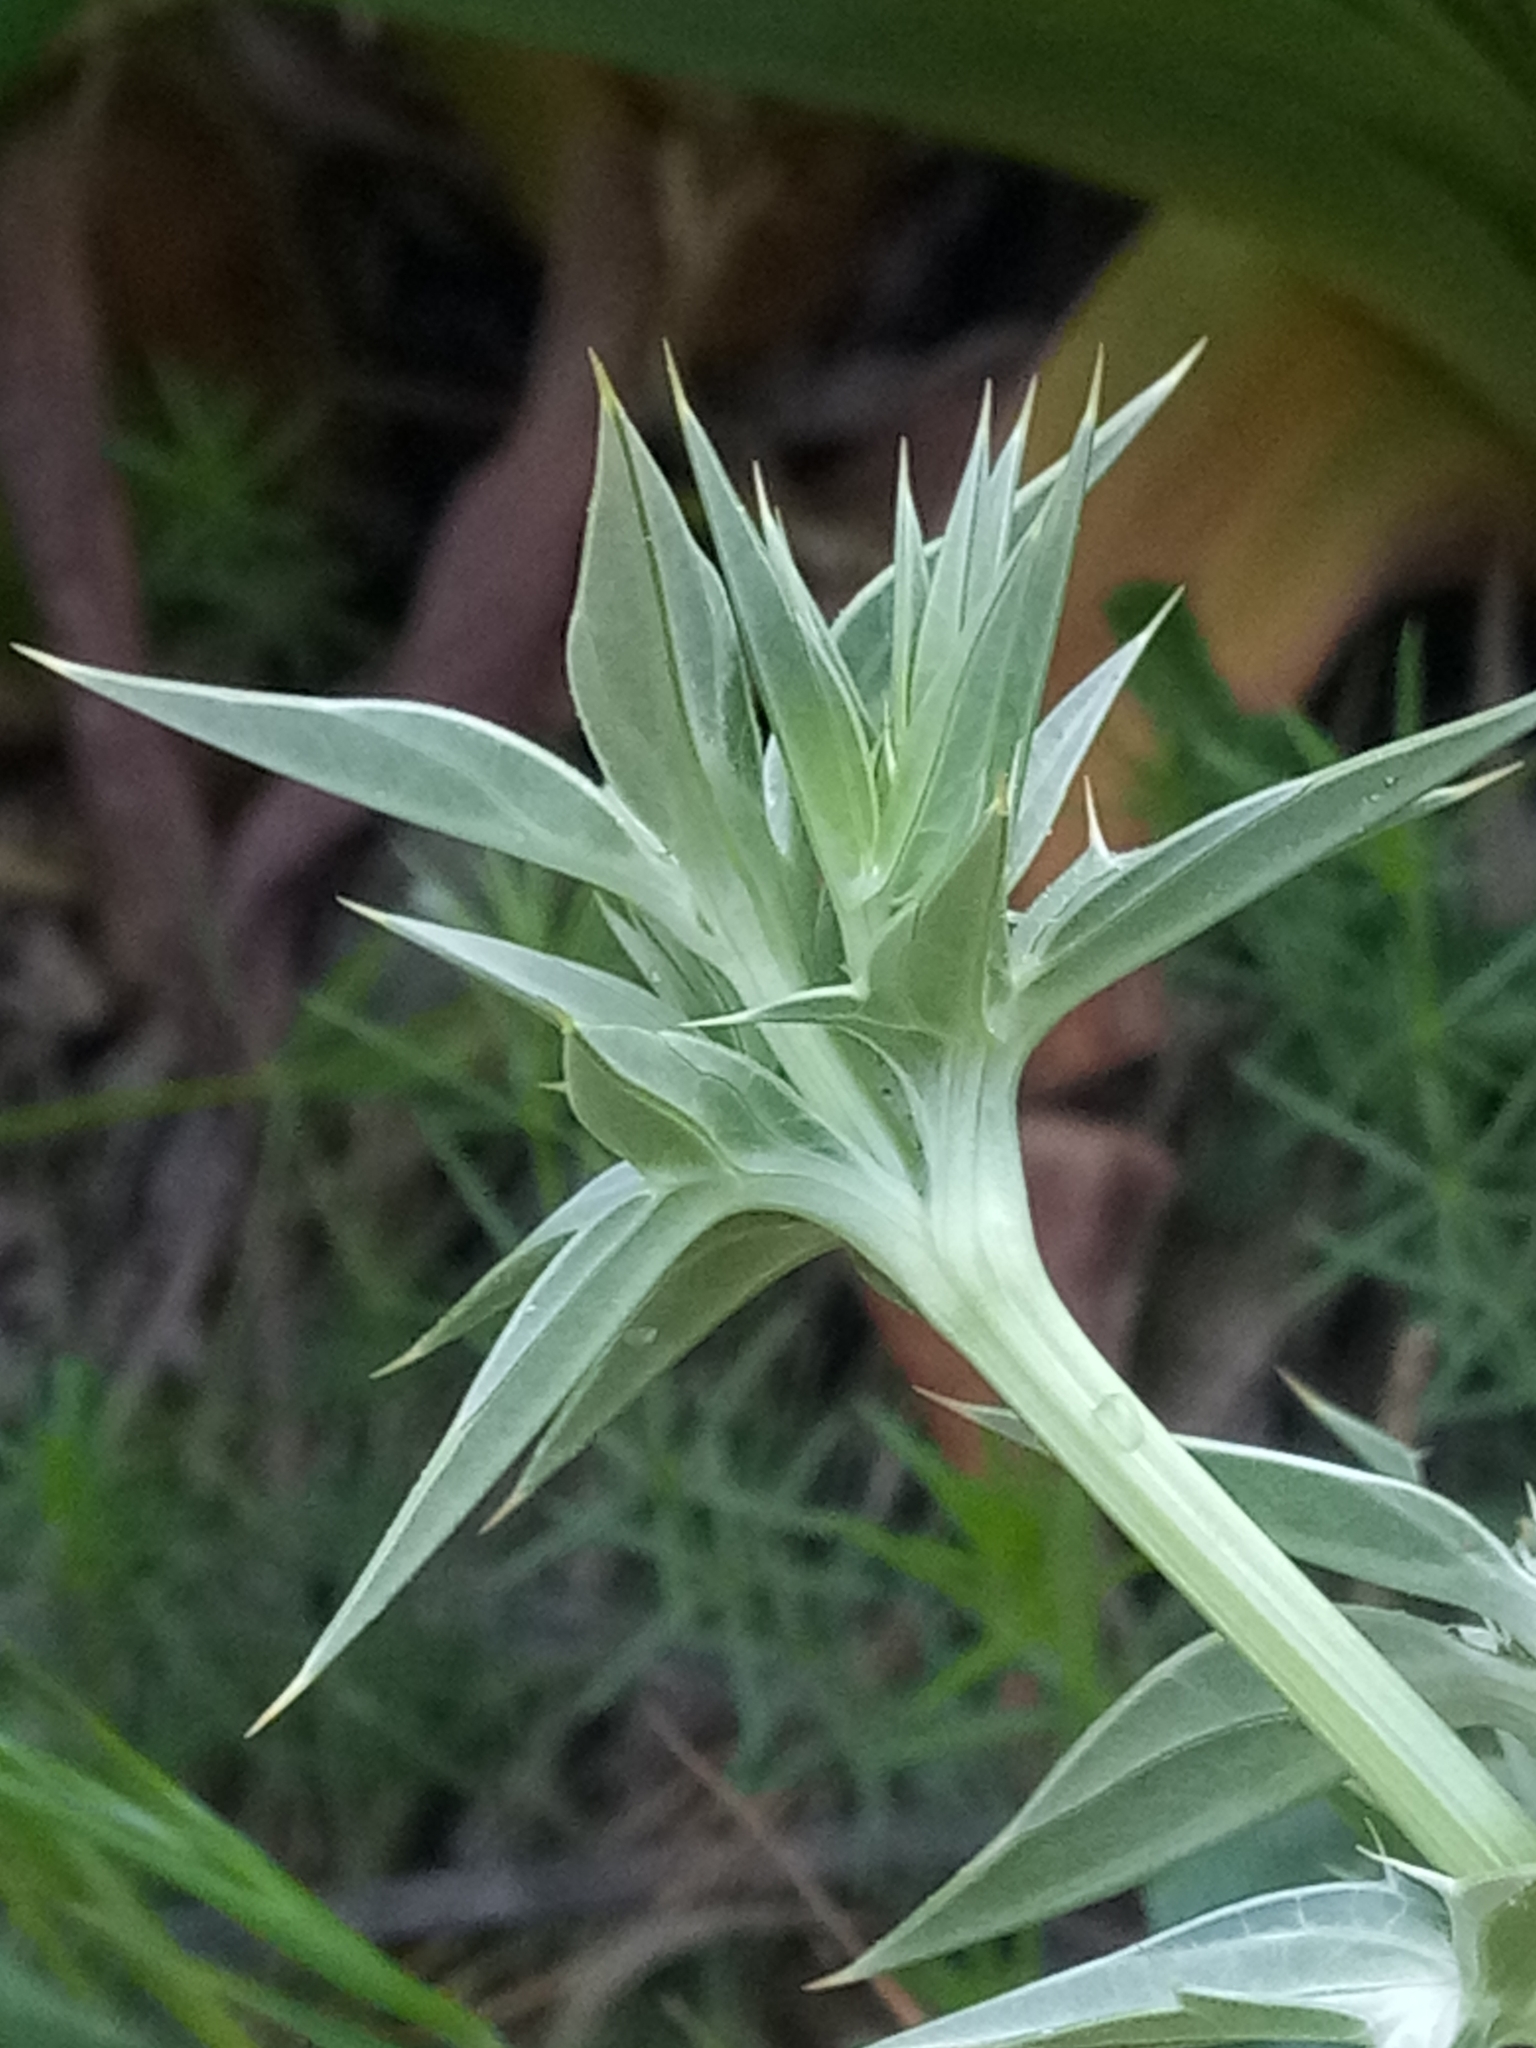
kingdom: Plantae
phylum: Tracheophyta
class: Magnoliopsida
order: Apiales
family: Apiaceae
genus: Eryngium
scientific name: Eryngium triquetrum
